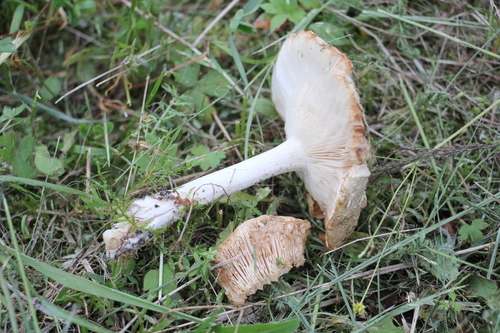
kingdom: Fungi
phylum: Basidiomycota
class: Agaricomycetes
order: Agaricales
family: Tricholomataceae
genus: Melanoleuca
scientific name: Melanoleuca strictipes
